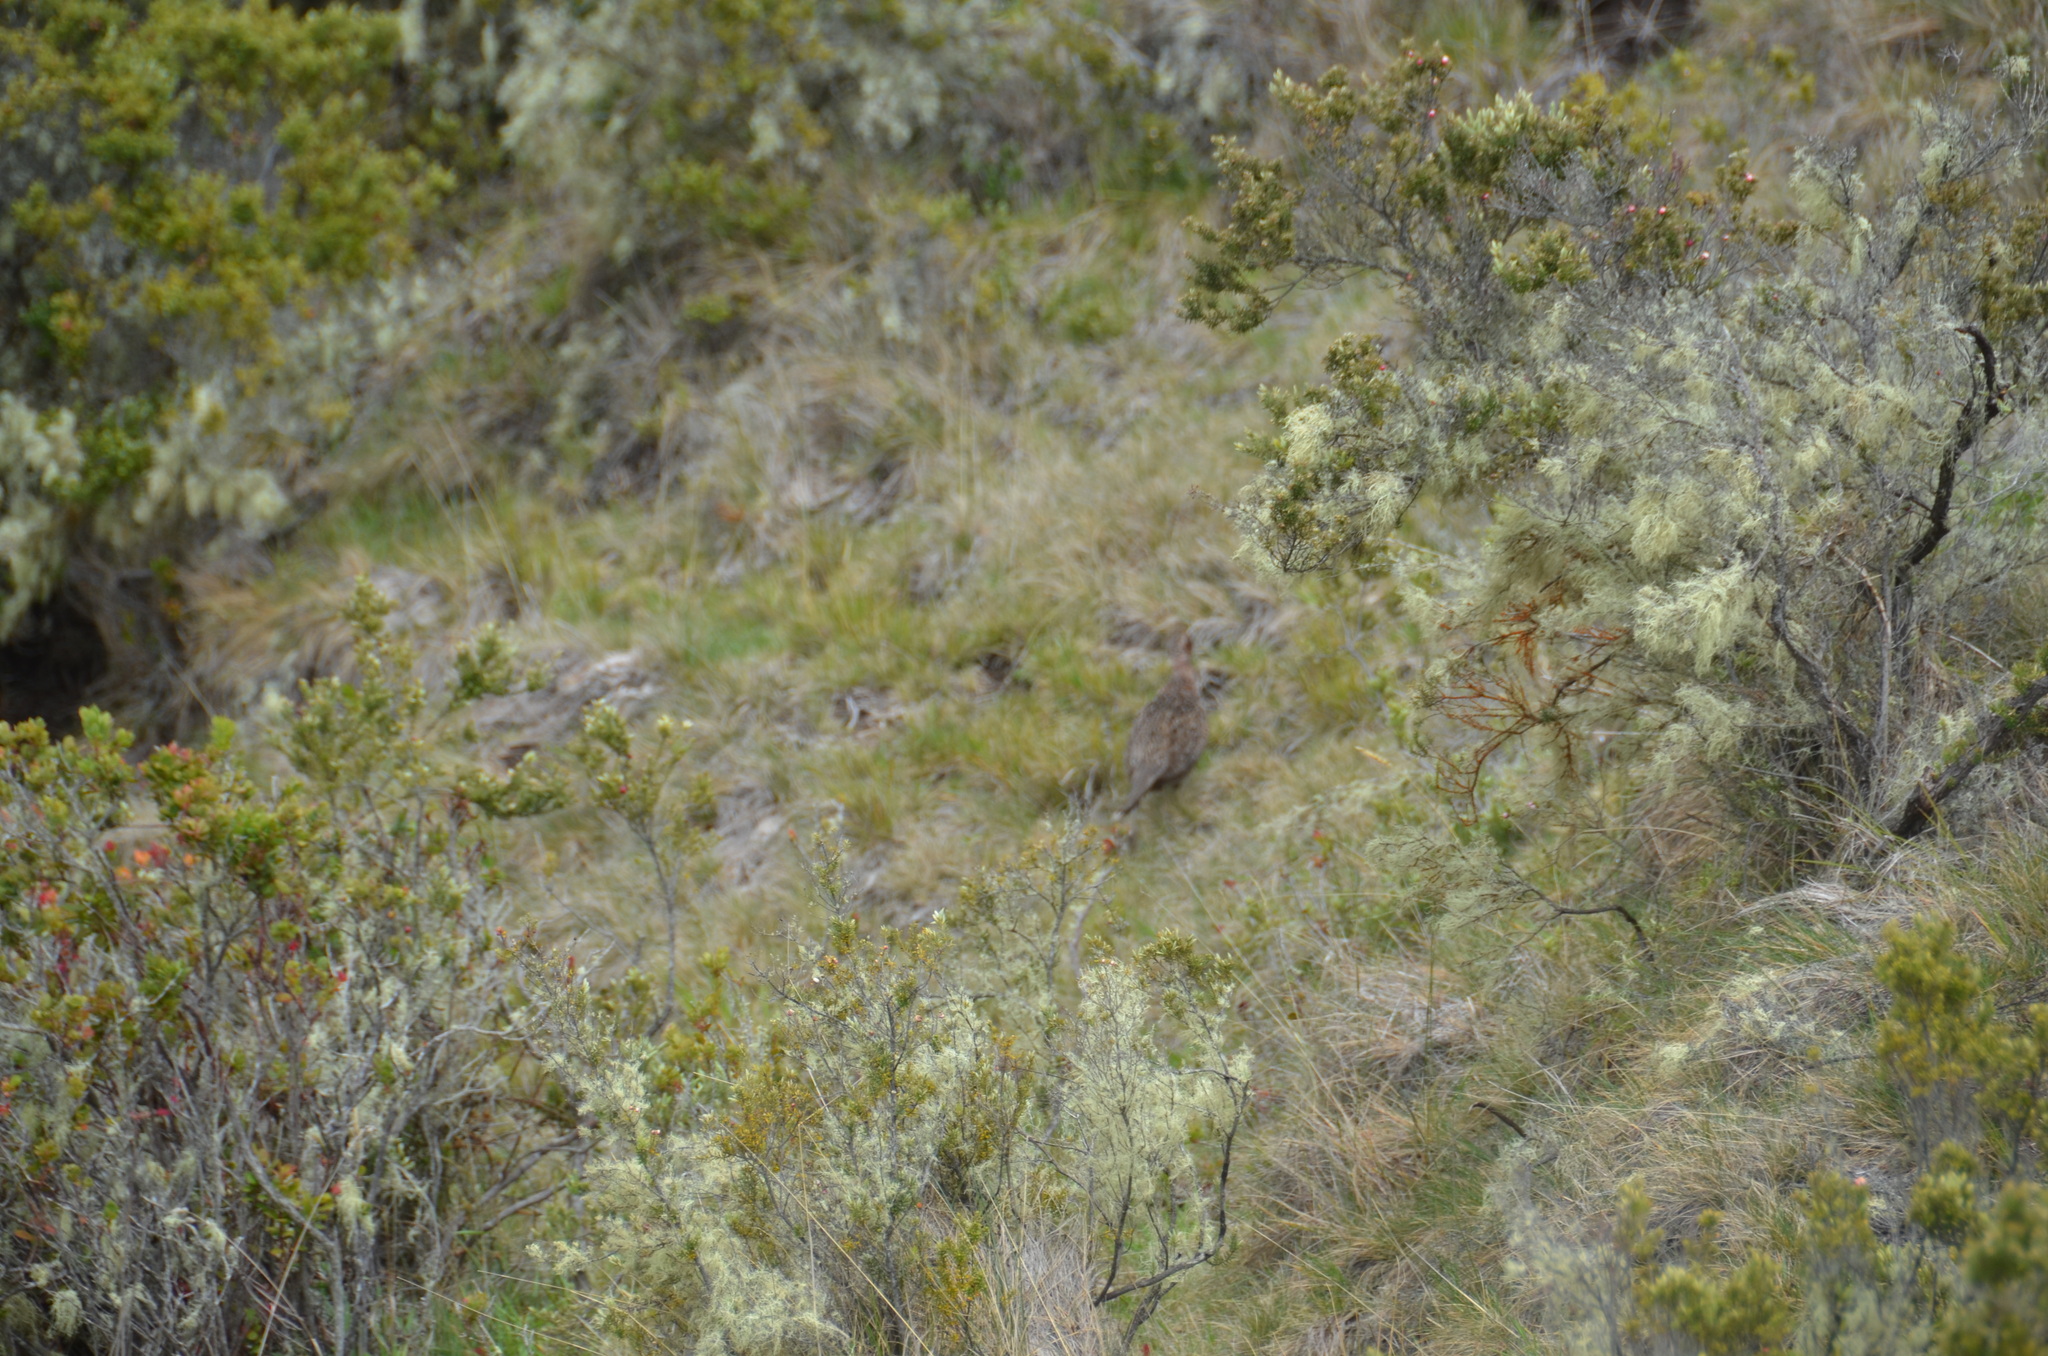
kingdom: Animalia
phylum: Chordata
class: Aves
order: Galliformes
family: Phasianidae
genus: Phasianus
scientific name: Phasianus colchicus
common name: Common pheasant
